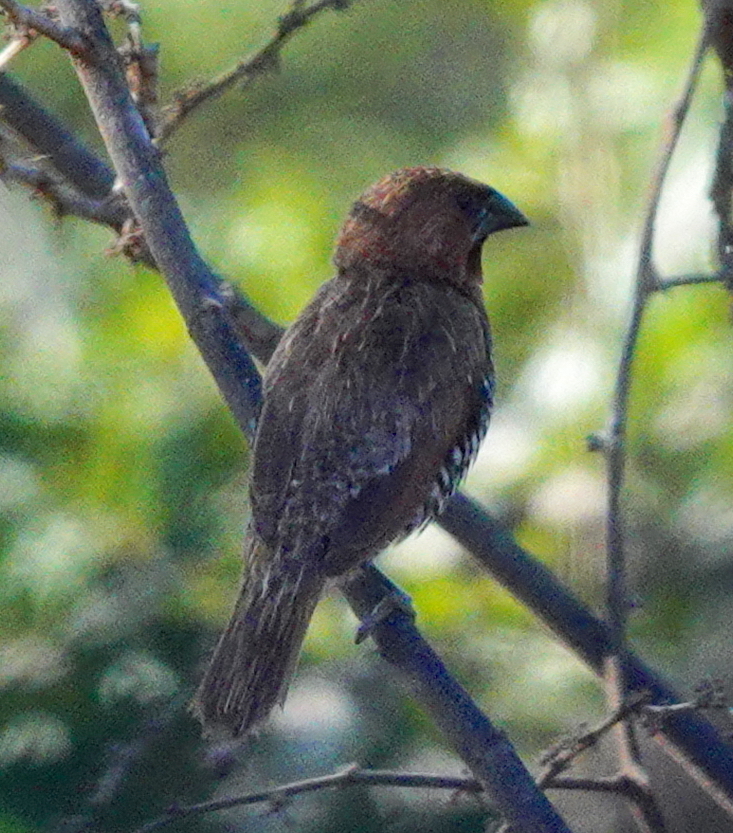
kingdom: Animalia
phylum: Chordata
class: Aves
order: Passeriformes
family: Estrildidae
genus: Lonchura
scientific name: Lonchura punctulata
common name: Scaly-breasted munia
